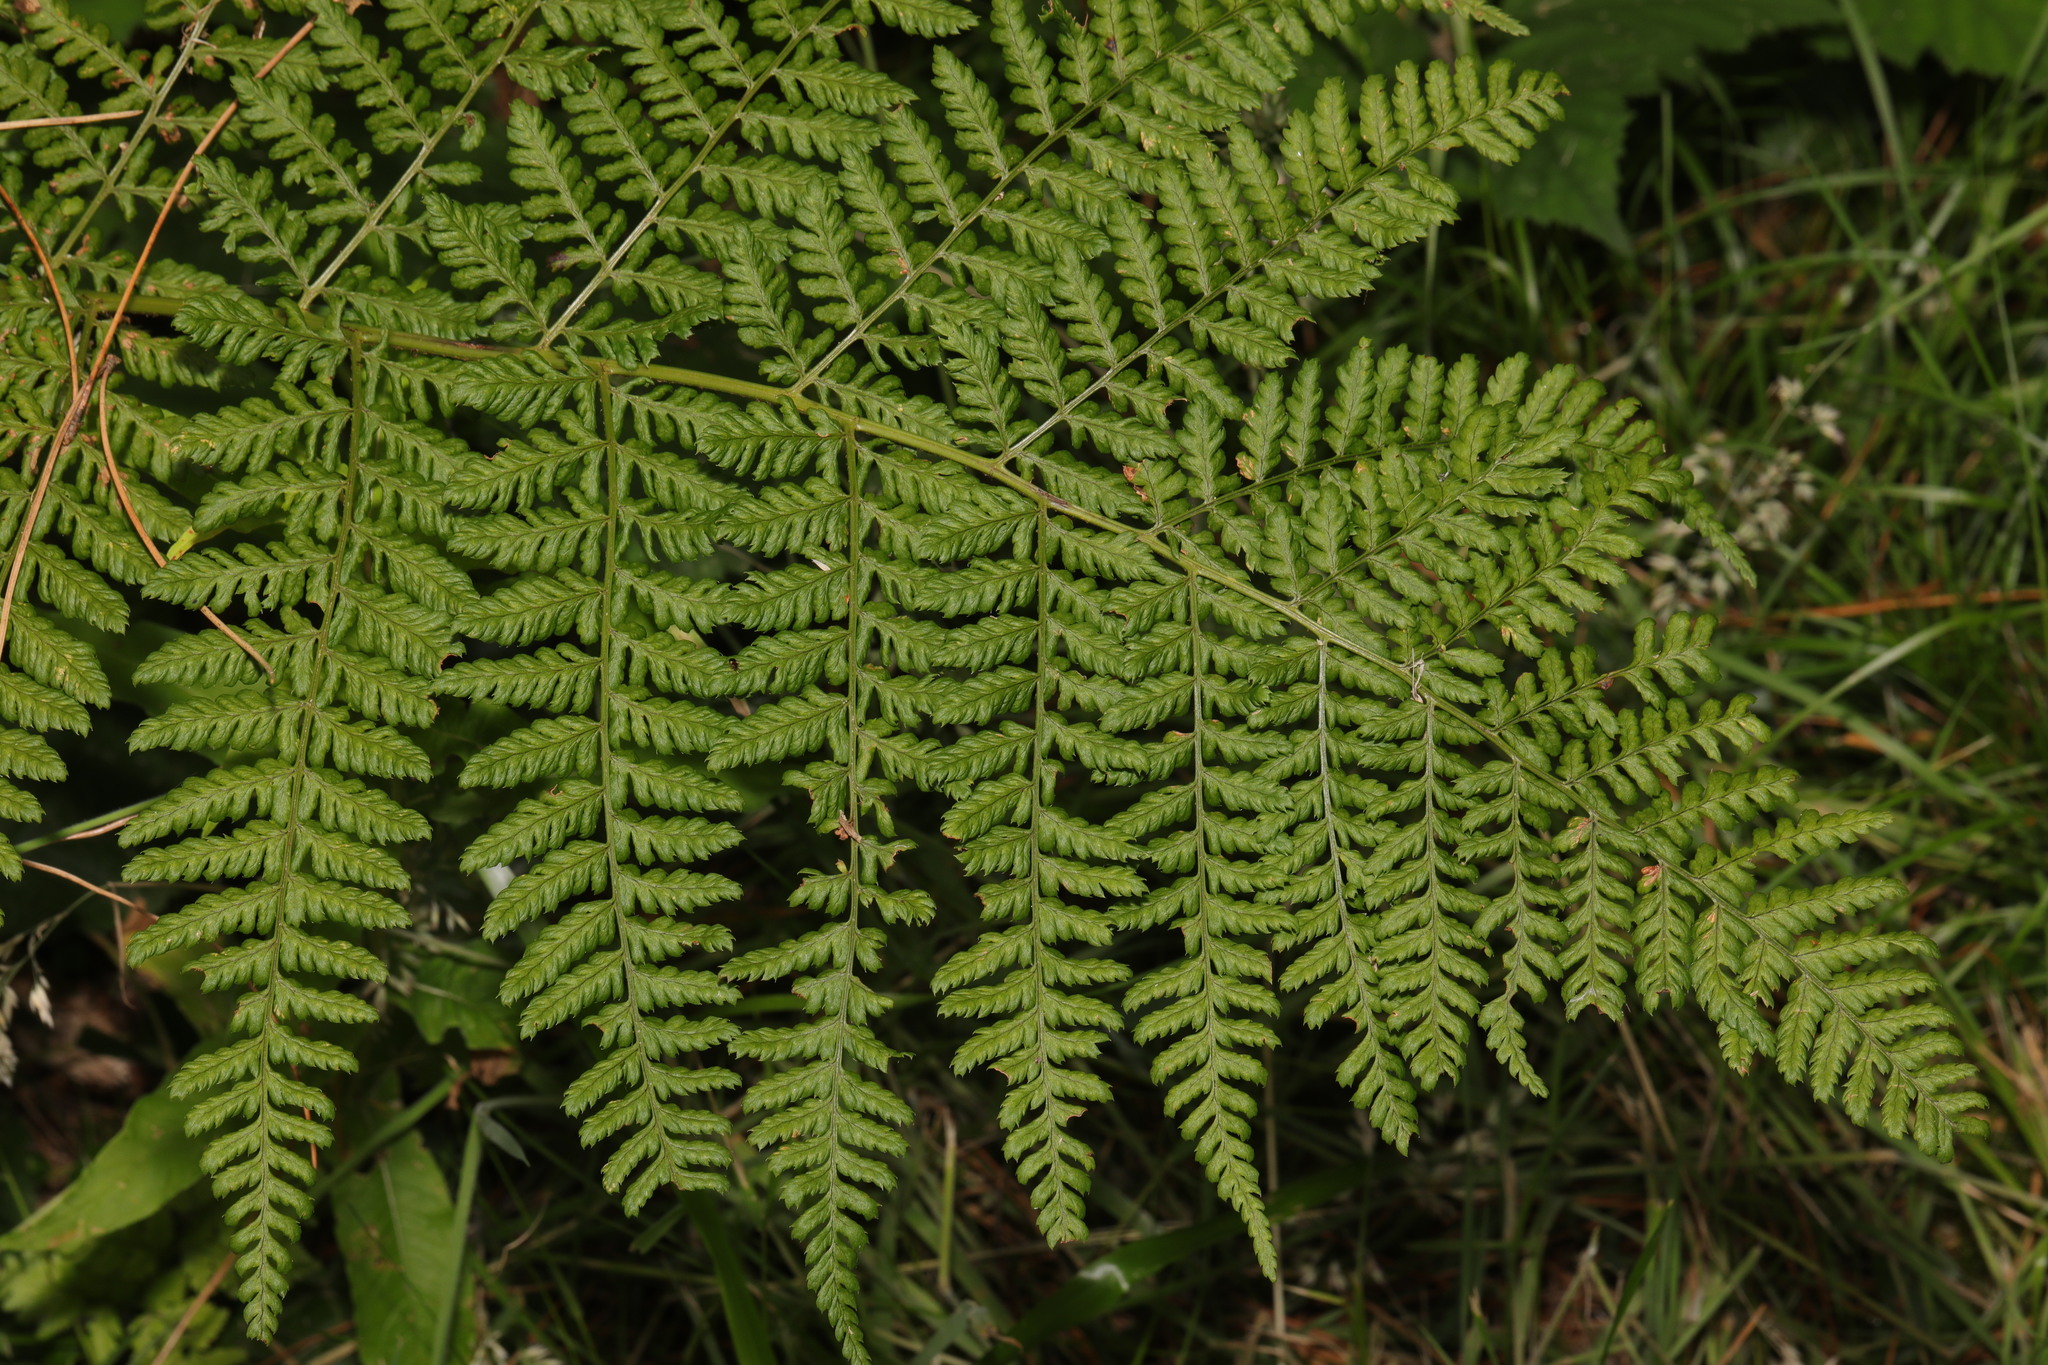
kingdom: Plantae
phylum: Tracheophyta
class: Polypodiopsida
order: Polypodiales
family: Dryopteridaceae
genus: Dryopteris
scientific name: Dryopteris dilatata
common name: Broad buckler-fern
